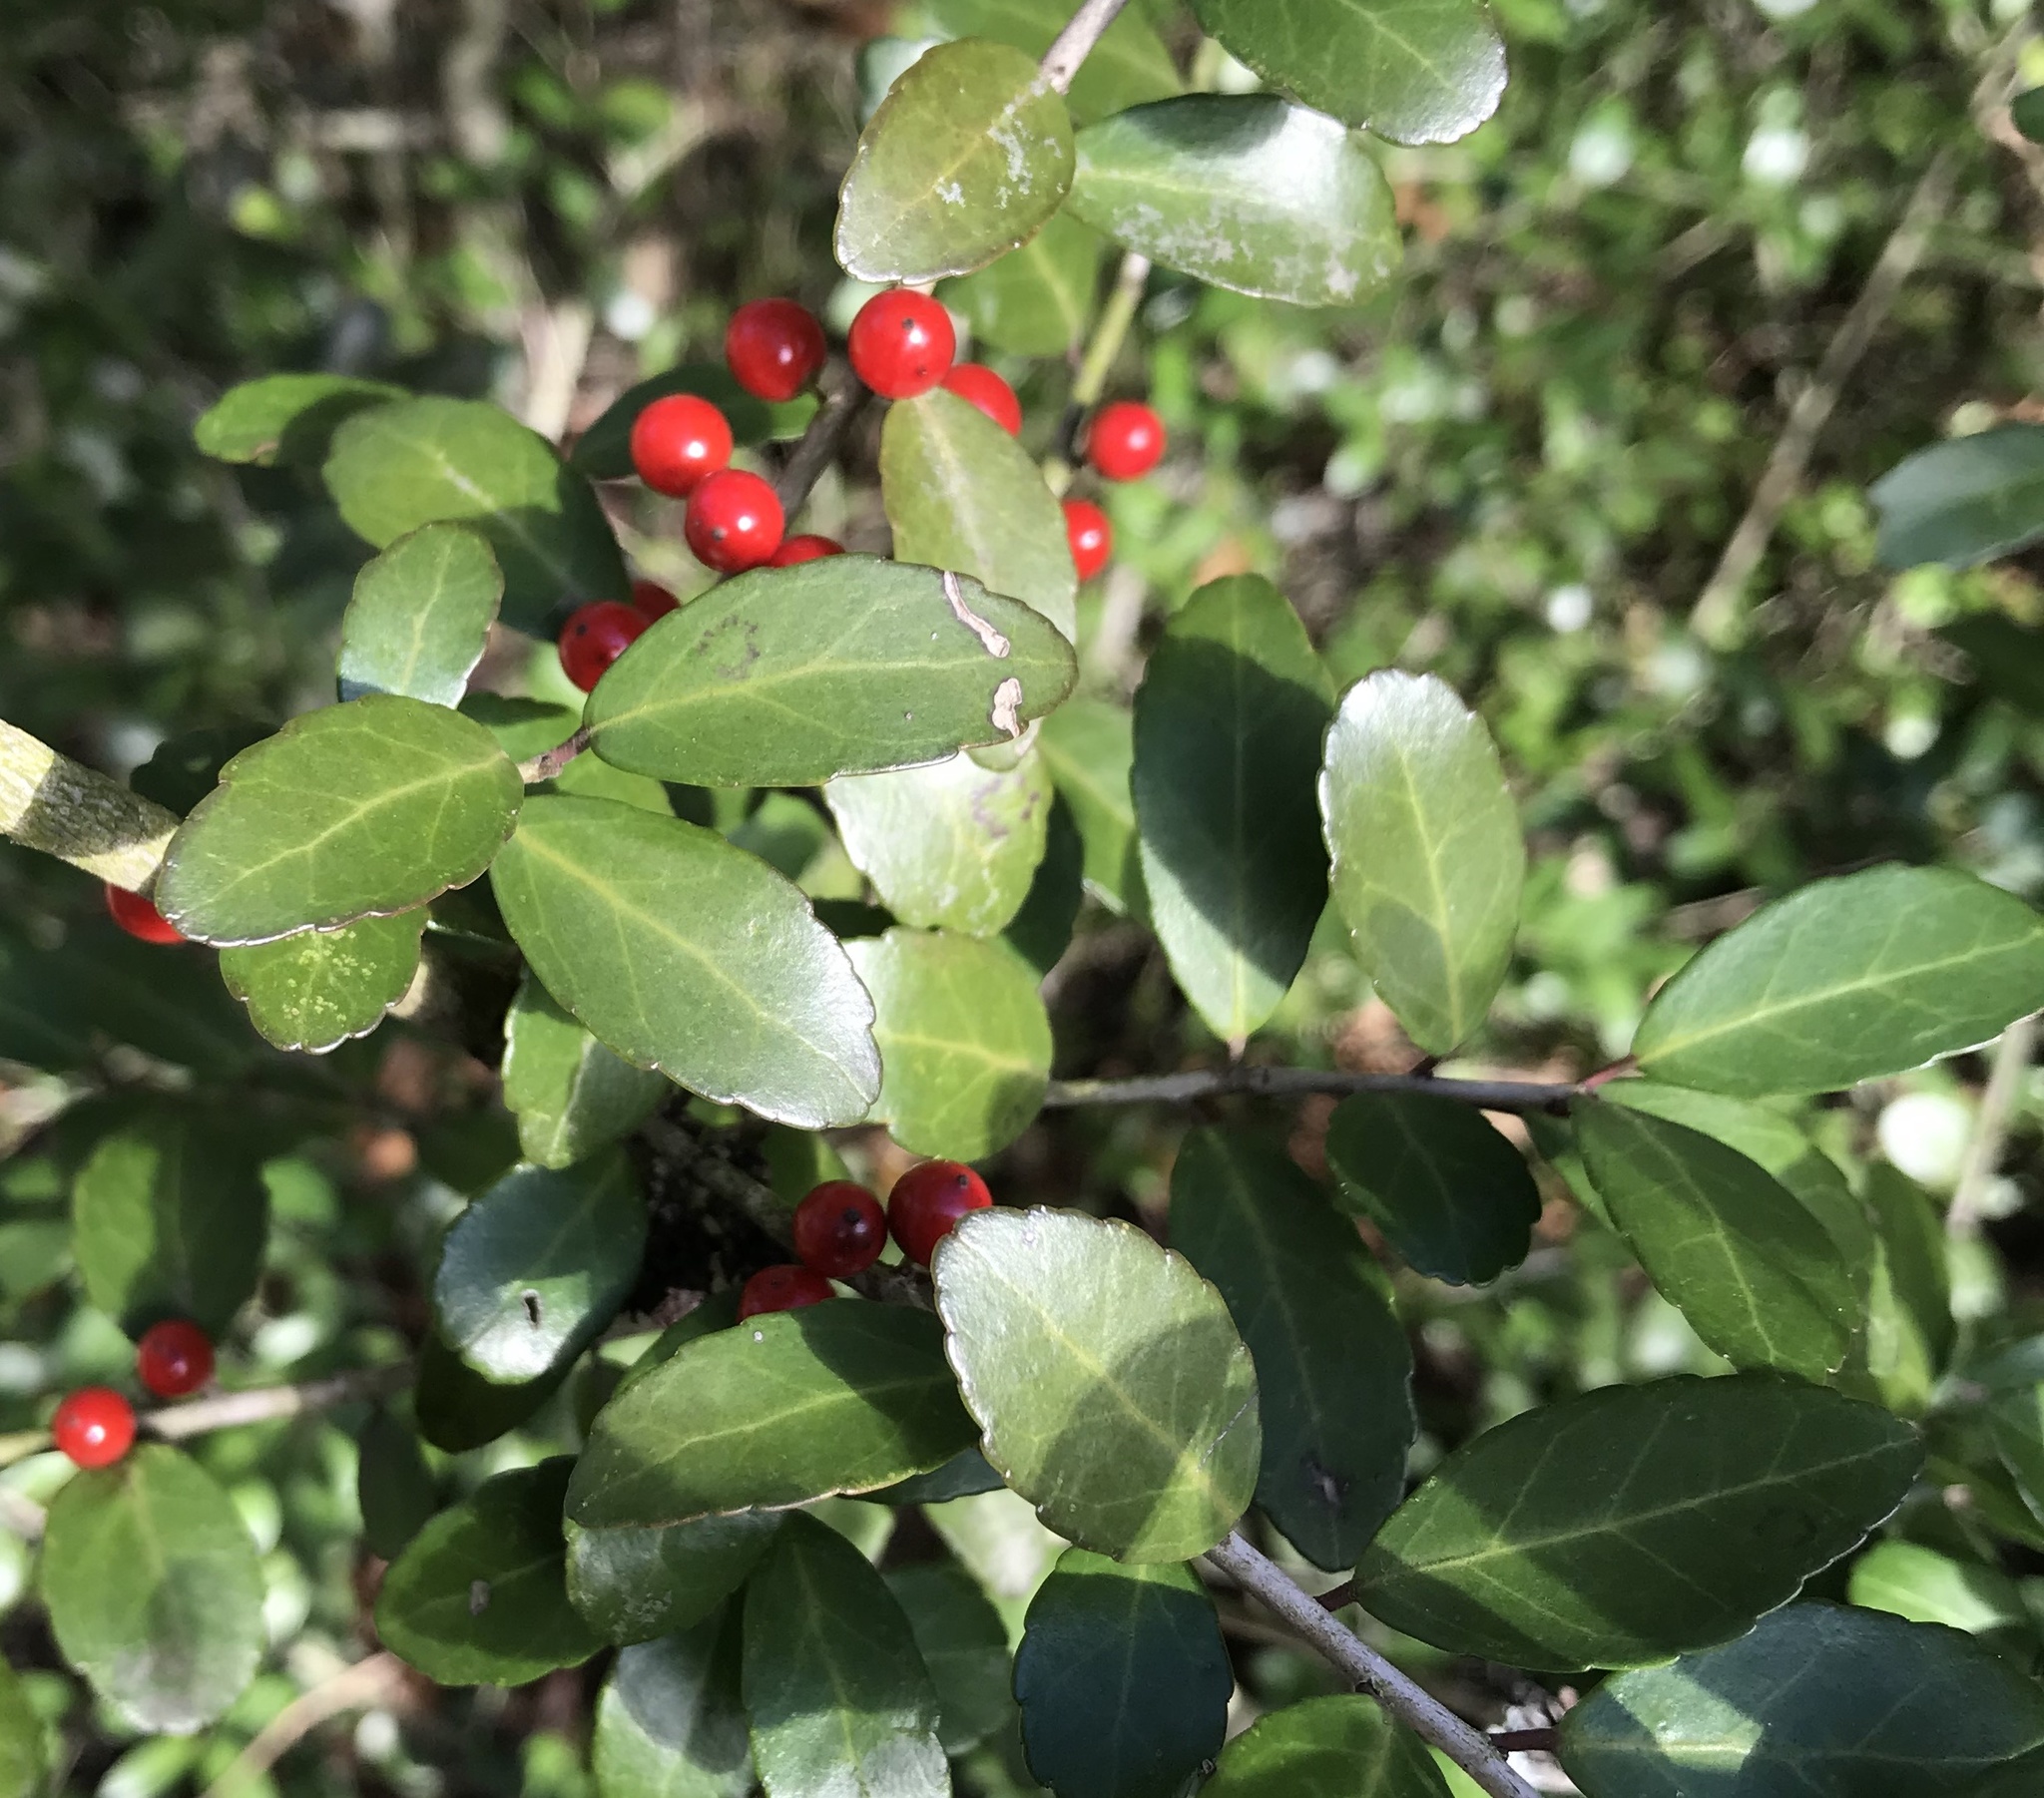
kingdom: Plantae
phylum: Tracheophyta
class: Magnoliopsida
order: Aquifoliales
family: Aquifoliaceae
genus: Ilex
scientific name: Ilex vomitoria
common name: Yaupon holly
